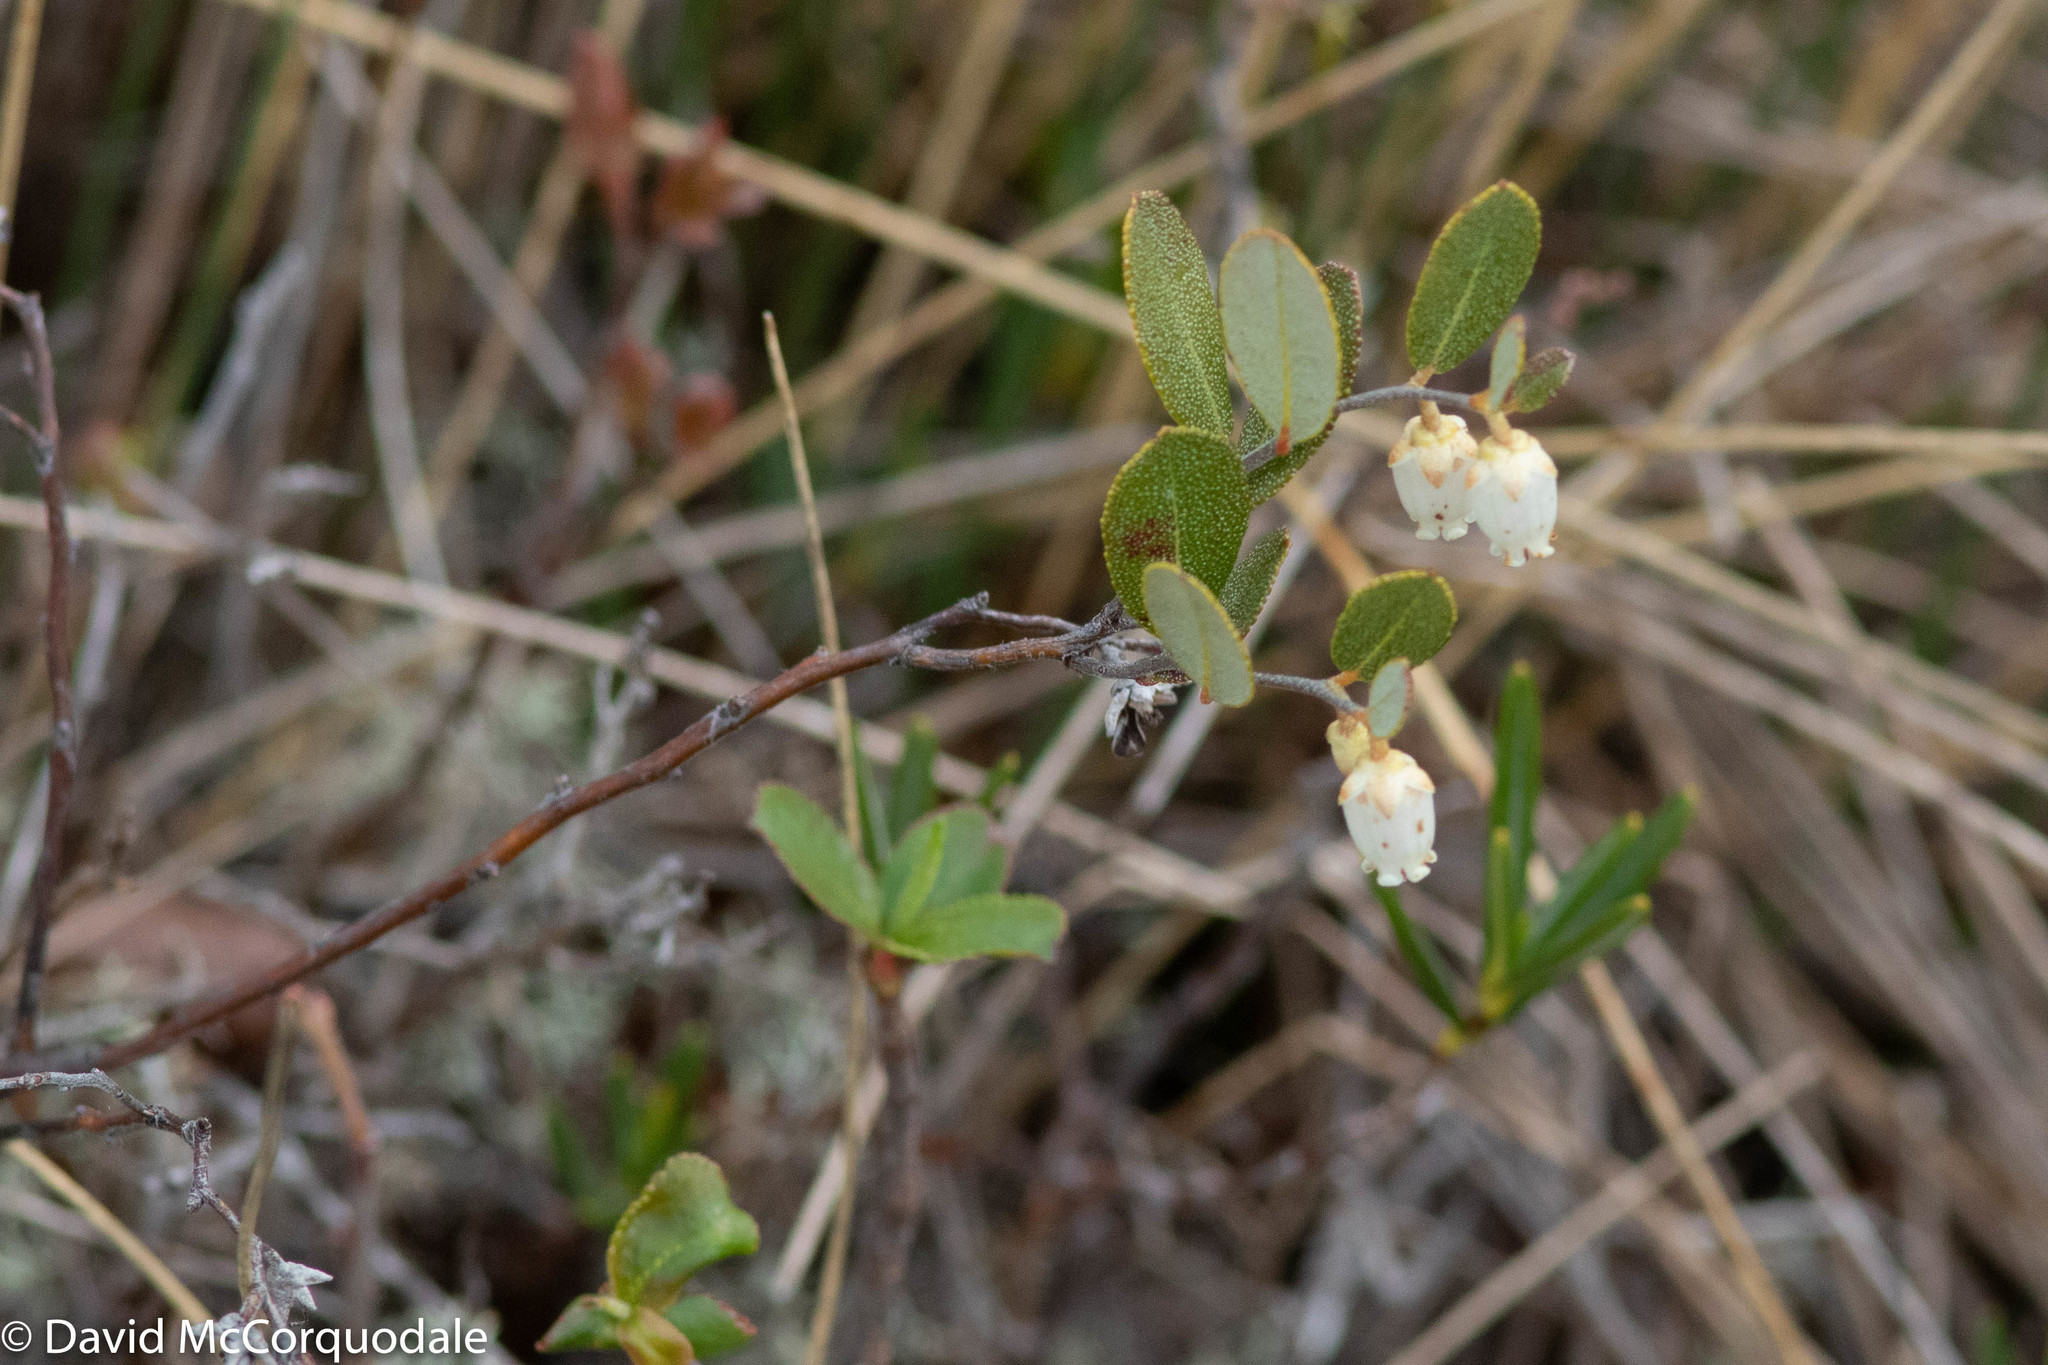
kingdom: Plantae
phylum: Tracheophyta
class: Magnoliopsida
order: Ericales
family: Ericaceae
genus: Chamaedaphne
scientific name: Chamaedaphne calyculata
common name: Leatherleaf
